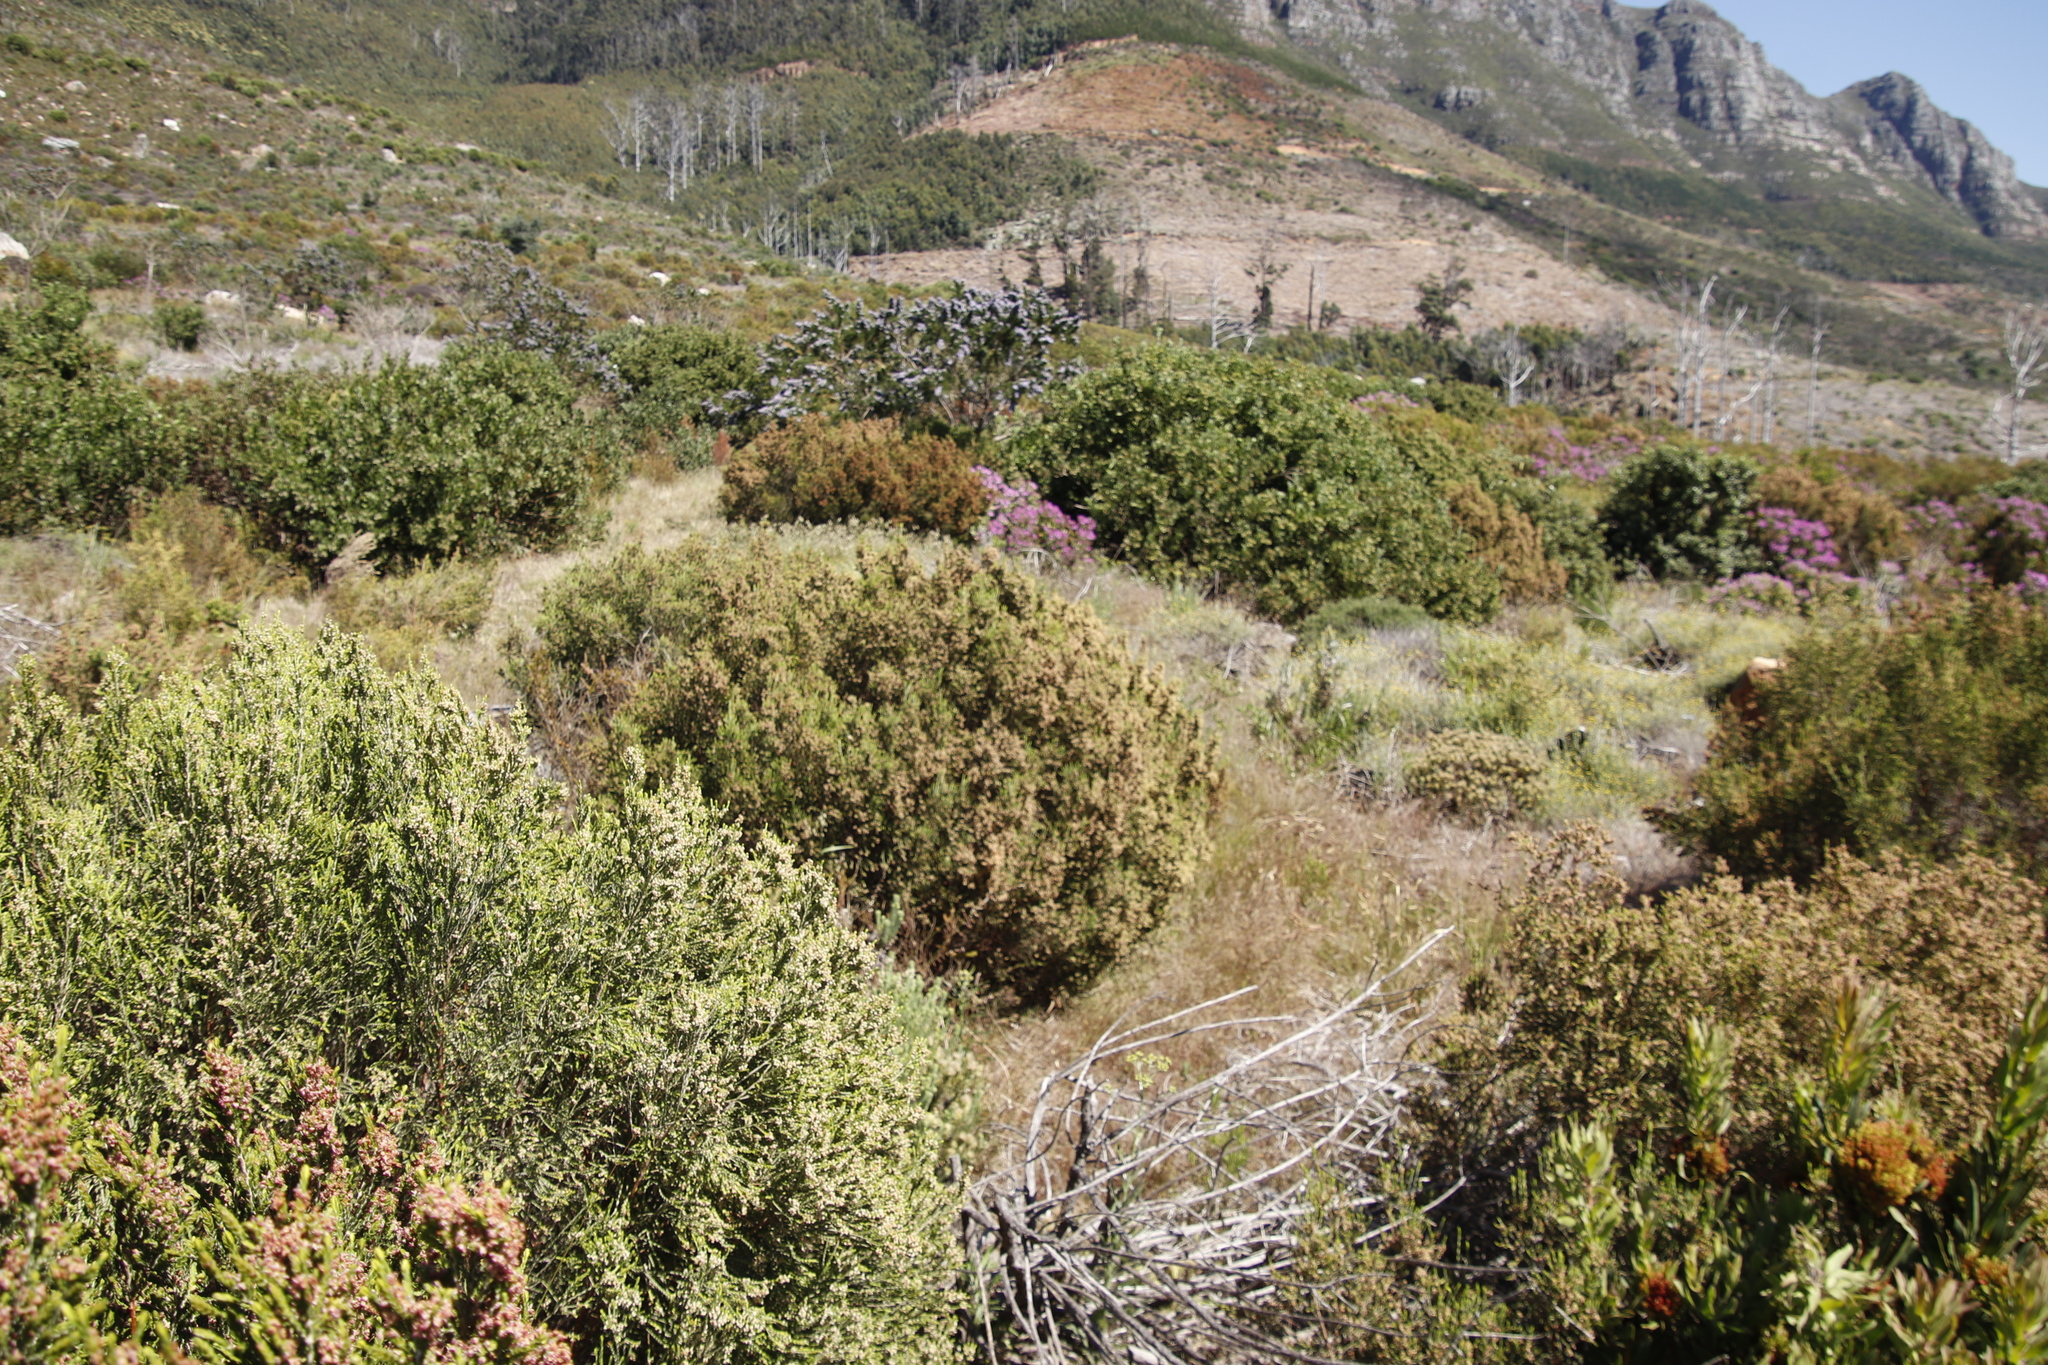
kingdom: Plantae
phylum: Tracheophyta
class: Magnoliopsida
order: Malvales
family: Thymelaeaceae
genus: Passerina
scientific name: Passerina corymbosa
